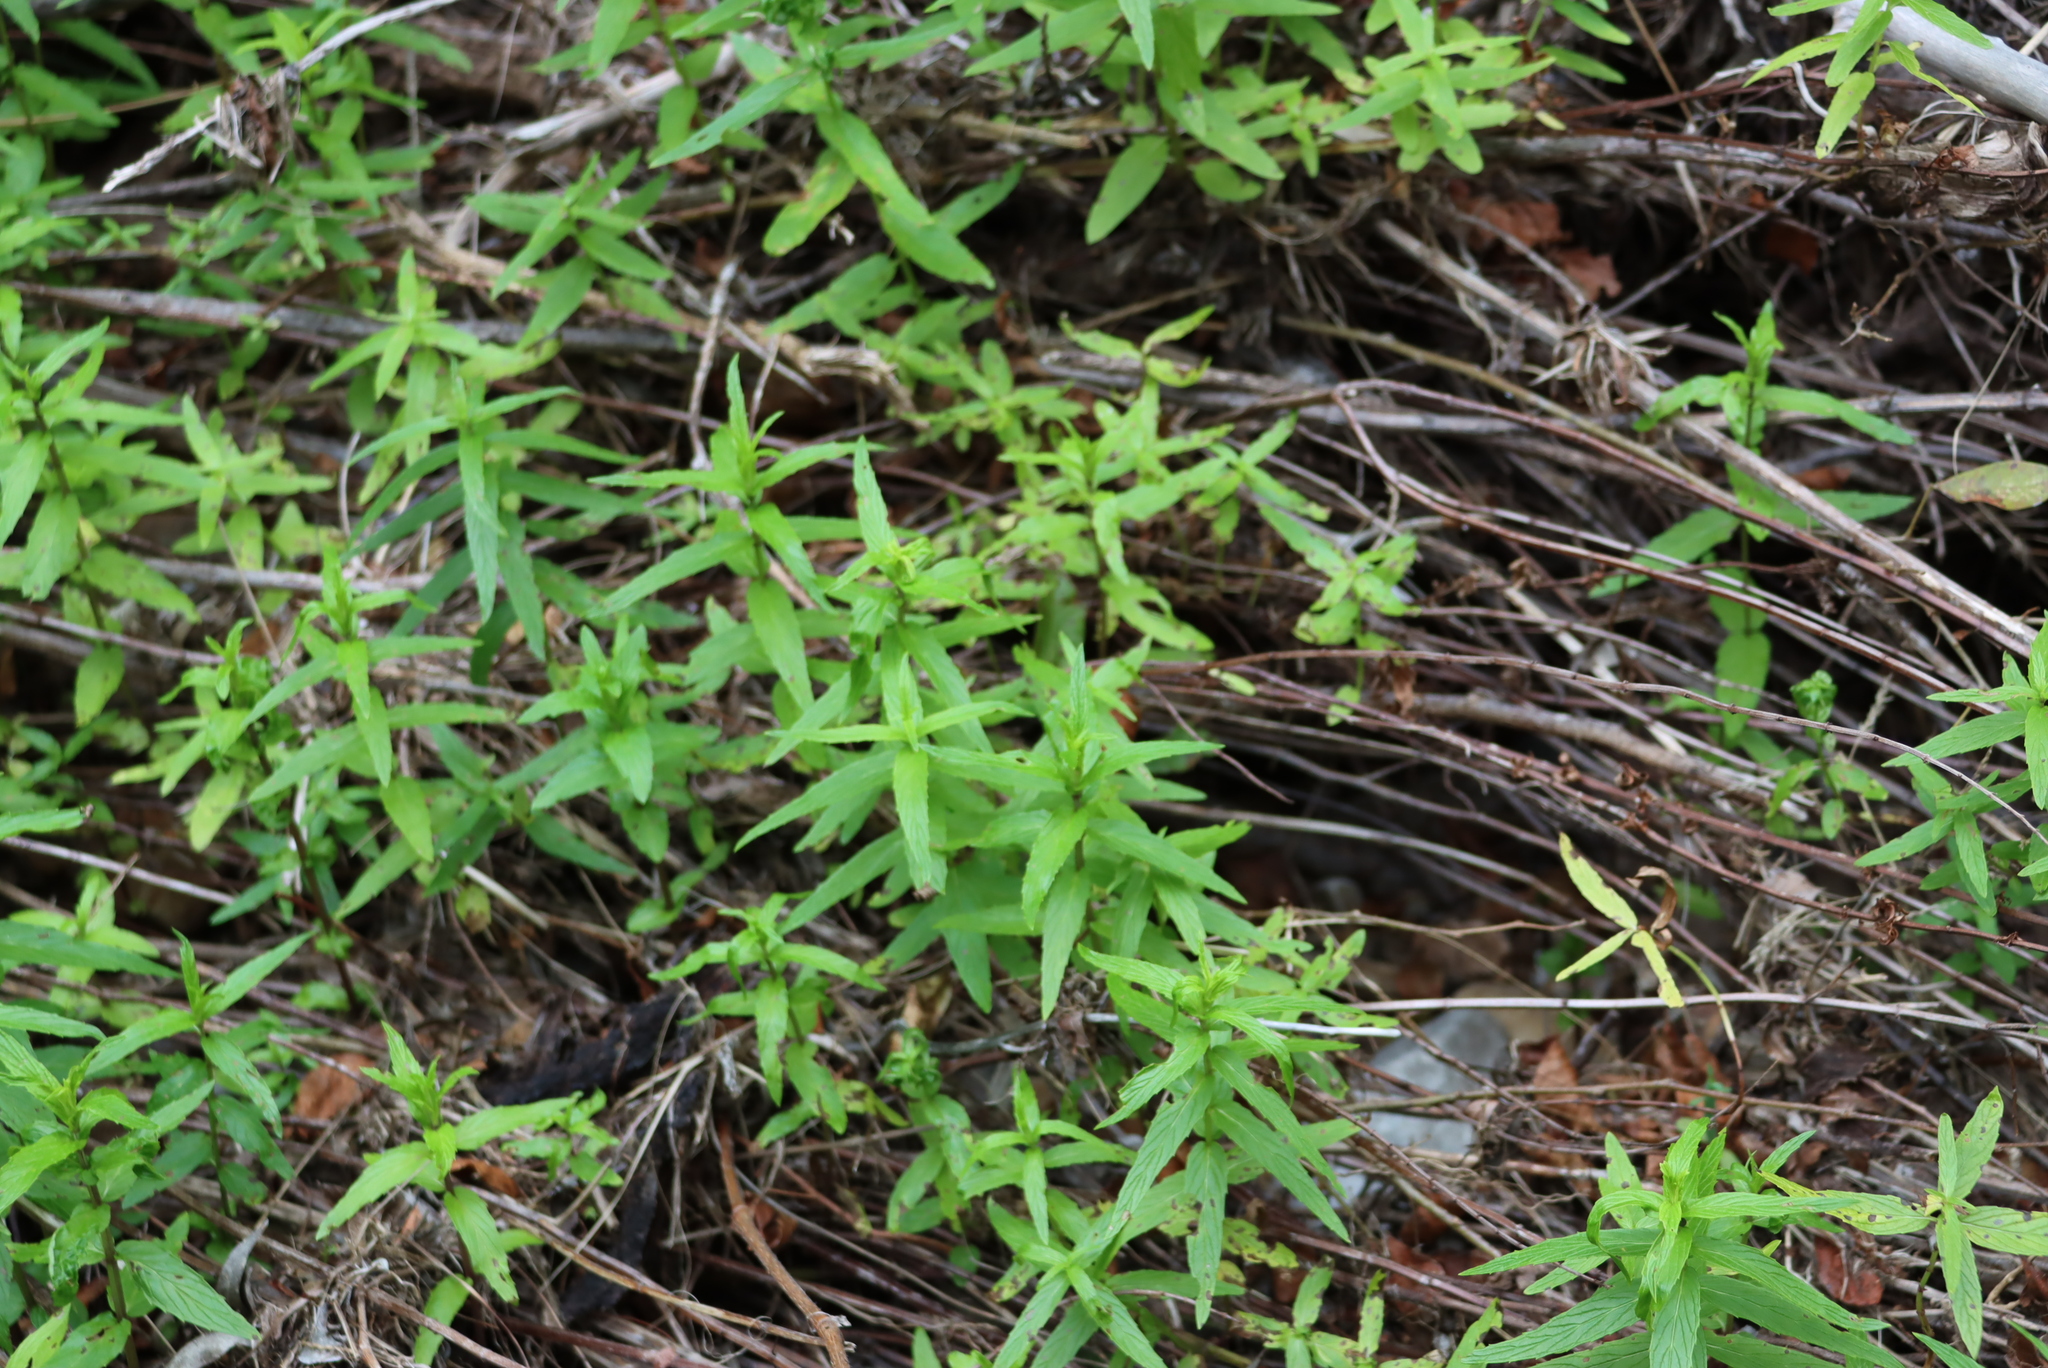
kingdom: Plantae
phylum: Tracheophyta
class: Magnoliopsida
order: Lamiales
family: Lamiaceae
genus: Mentha
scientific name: Mentha longifolia
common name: Horse mint
